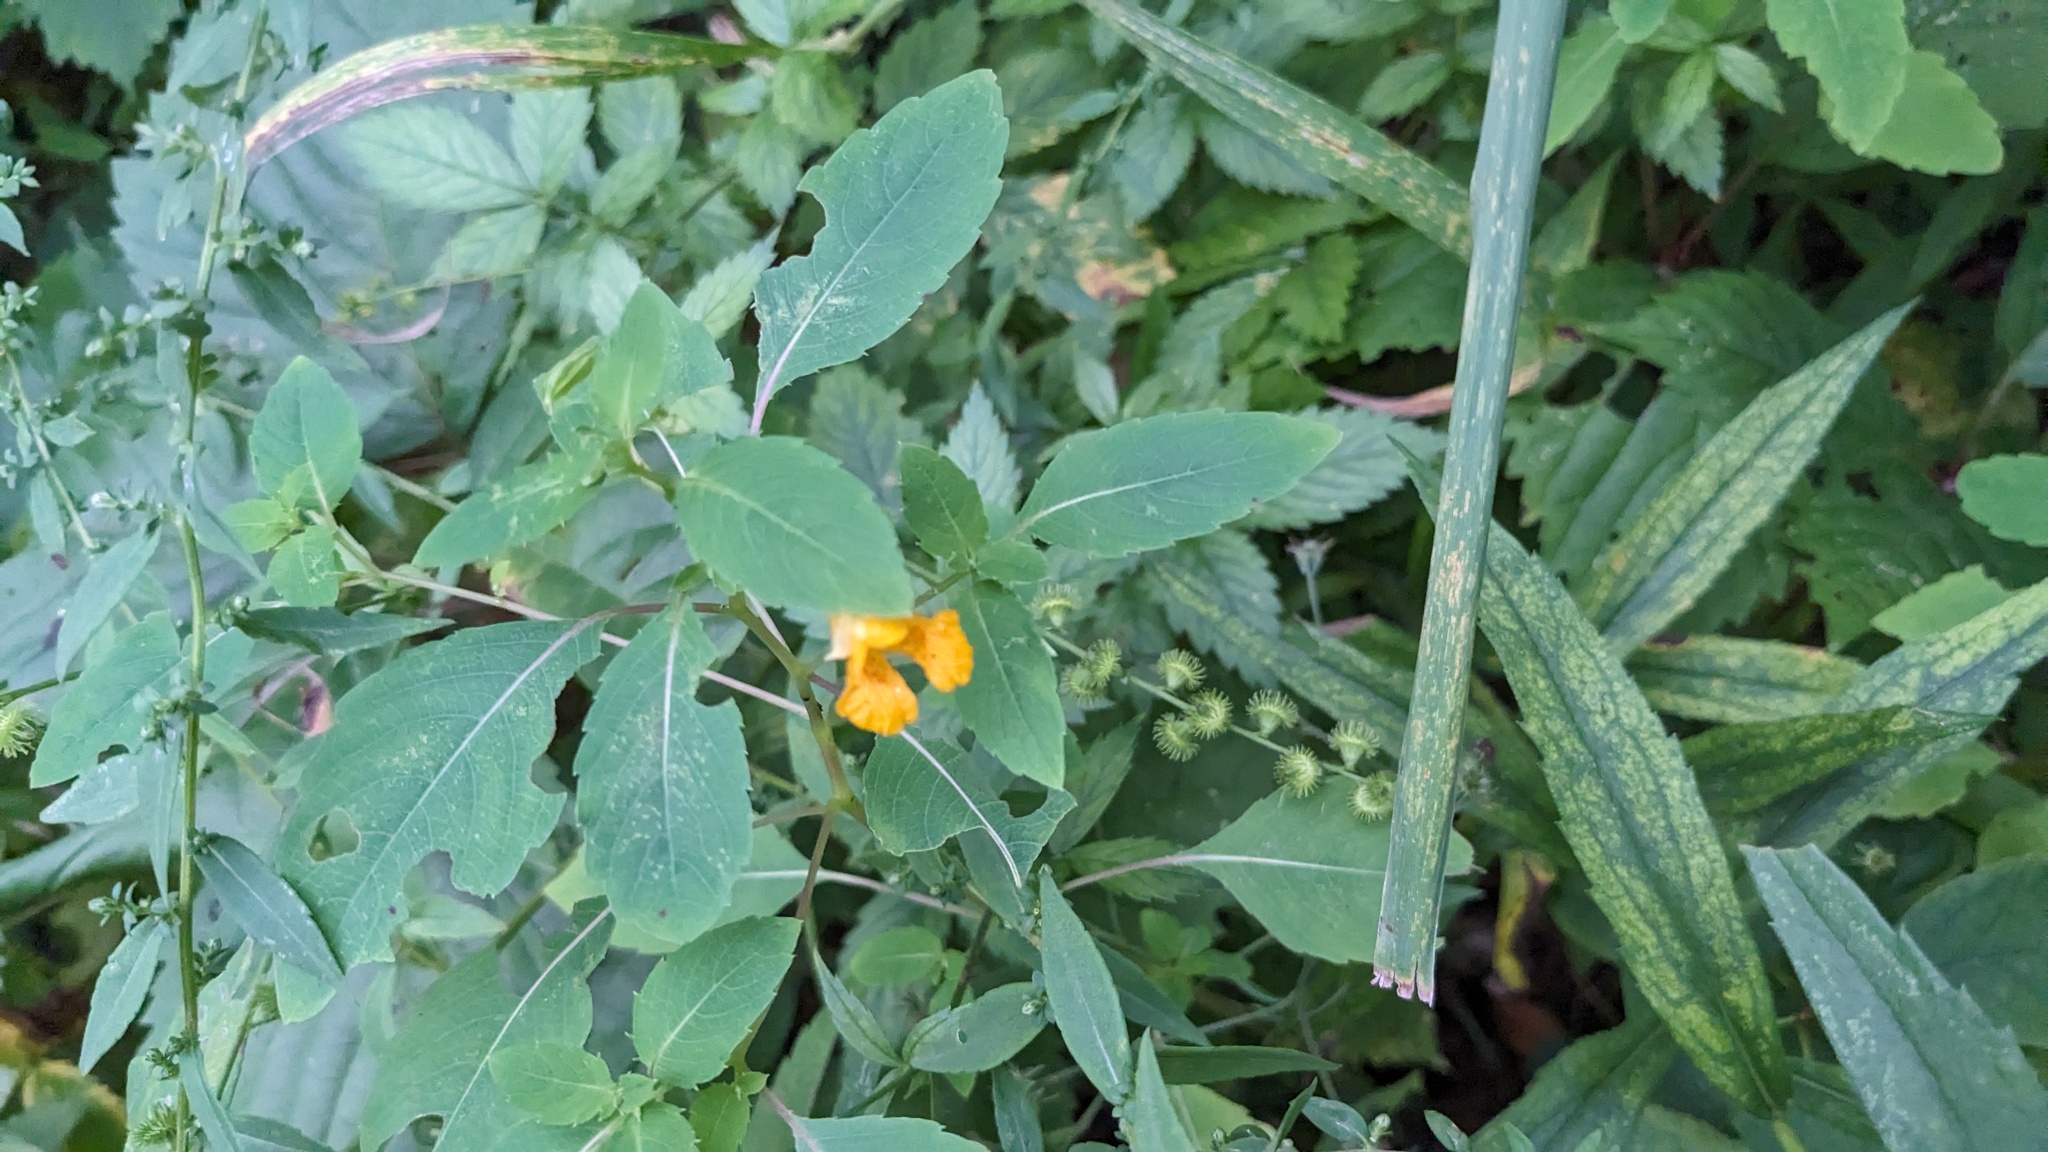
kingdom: Plantae
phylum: Tracheophyta
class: Magnoliopsida
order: Ericales
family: Balsaminaceae
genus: Impatiens
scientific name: Impatiens capensis
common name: Orange balsam
